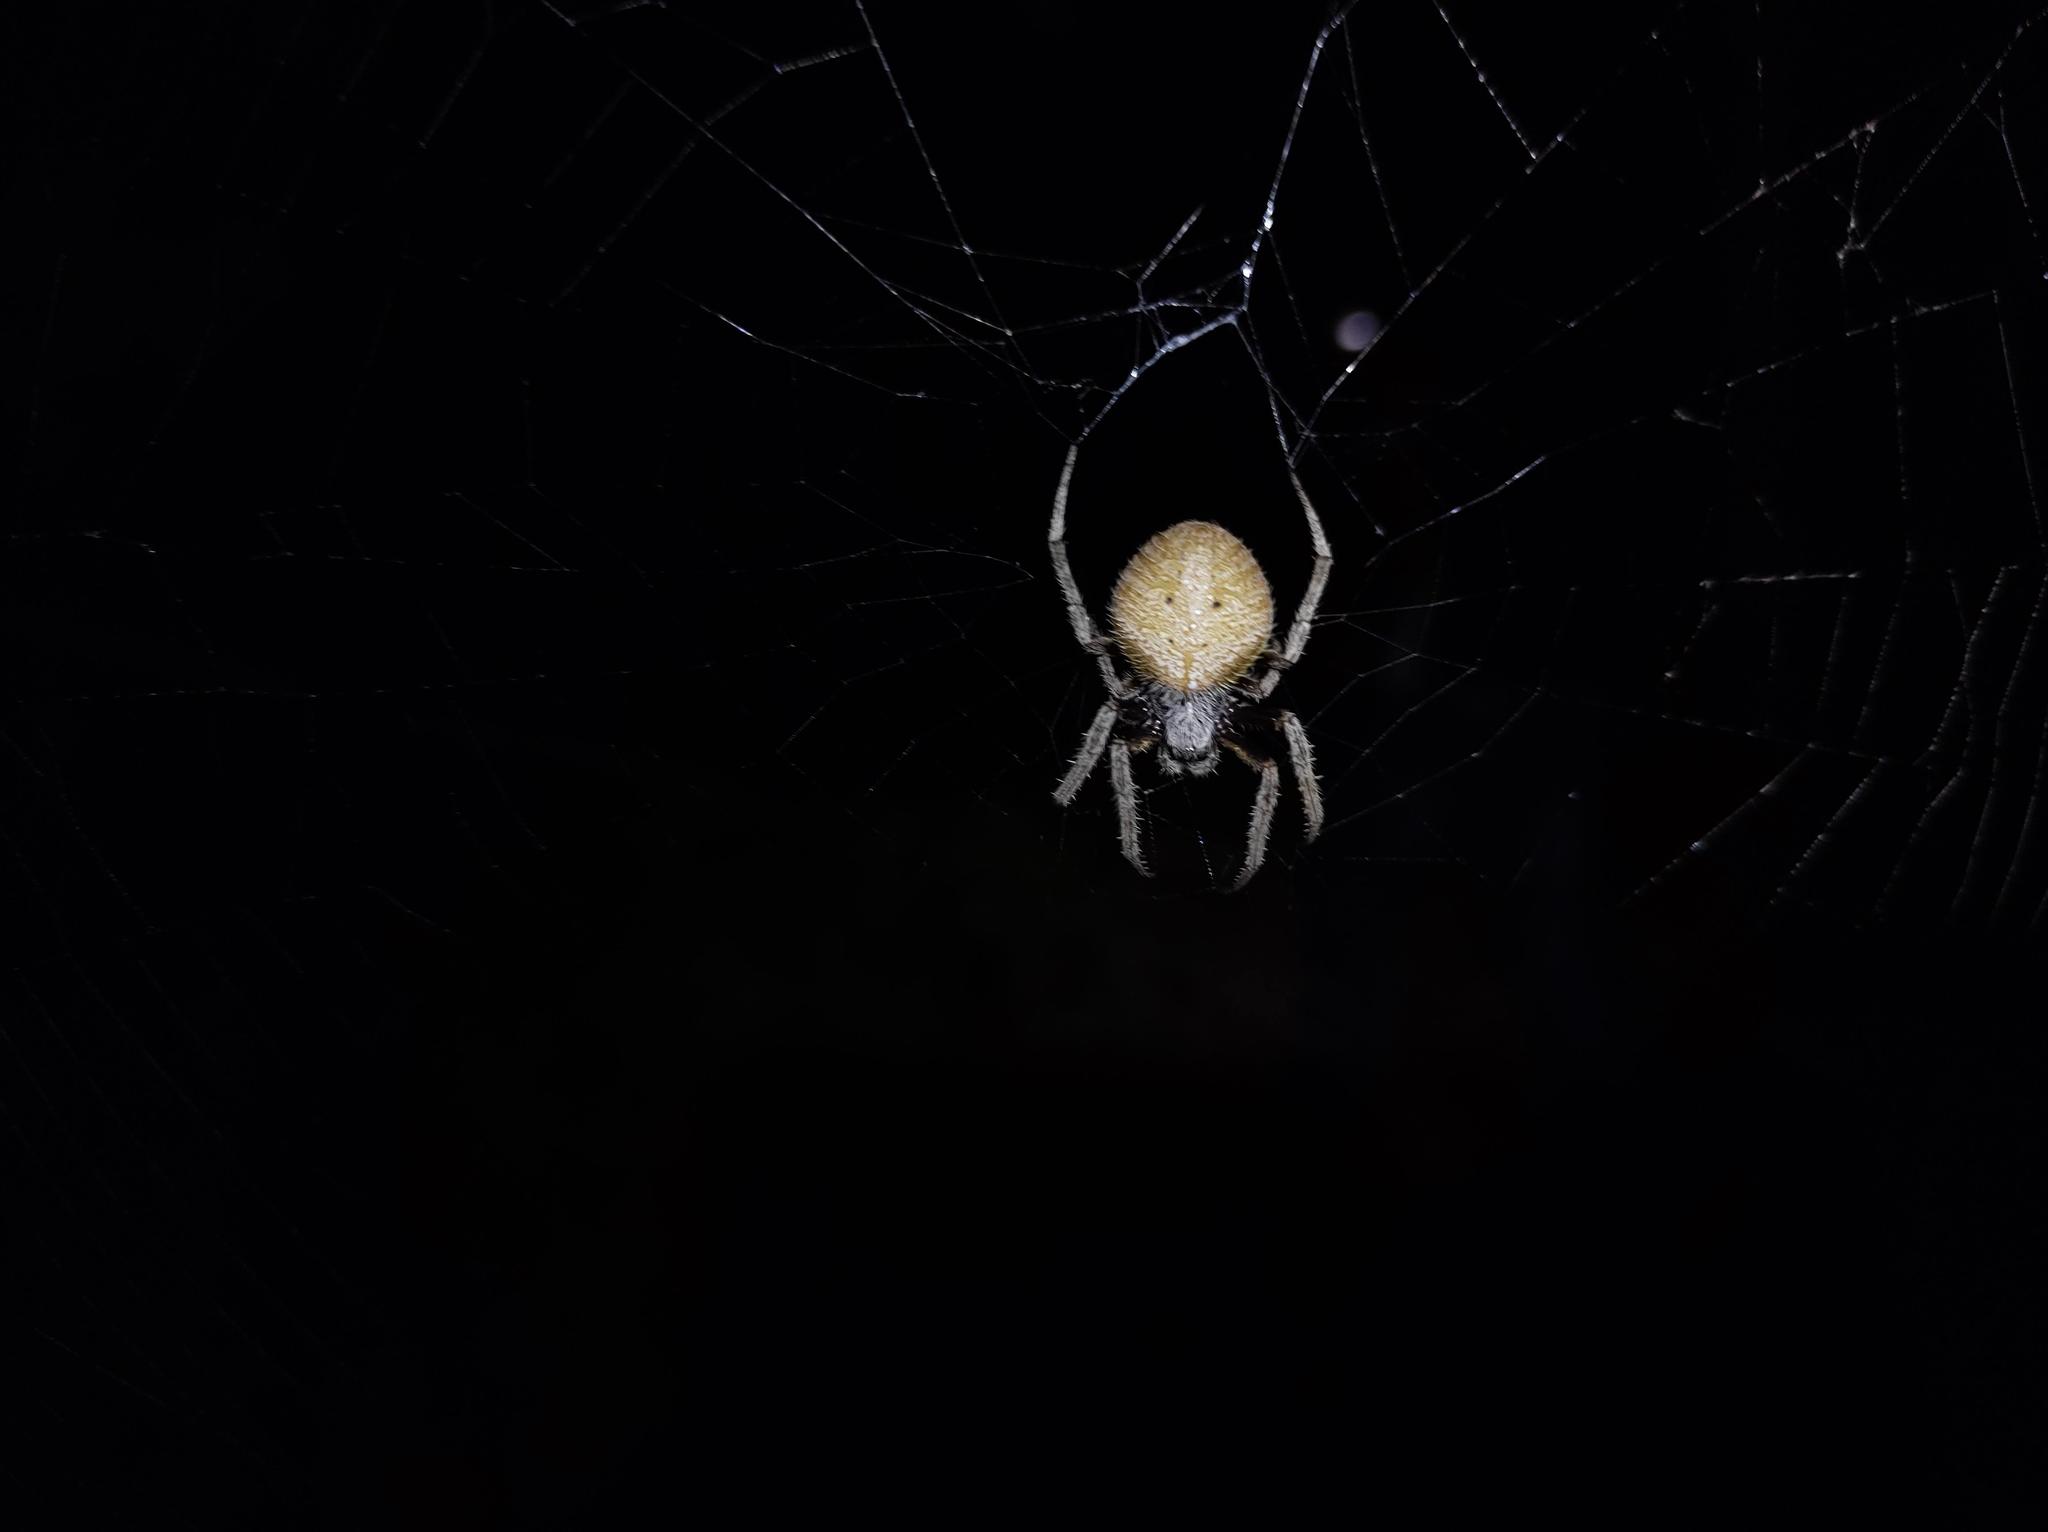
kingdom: Animalia
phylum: Arthropoda
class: Arachnida
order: Araneae
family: Araneidae
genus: Eriophora
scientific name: Eriophora ravilla
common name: Orb weavers
